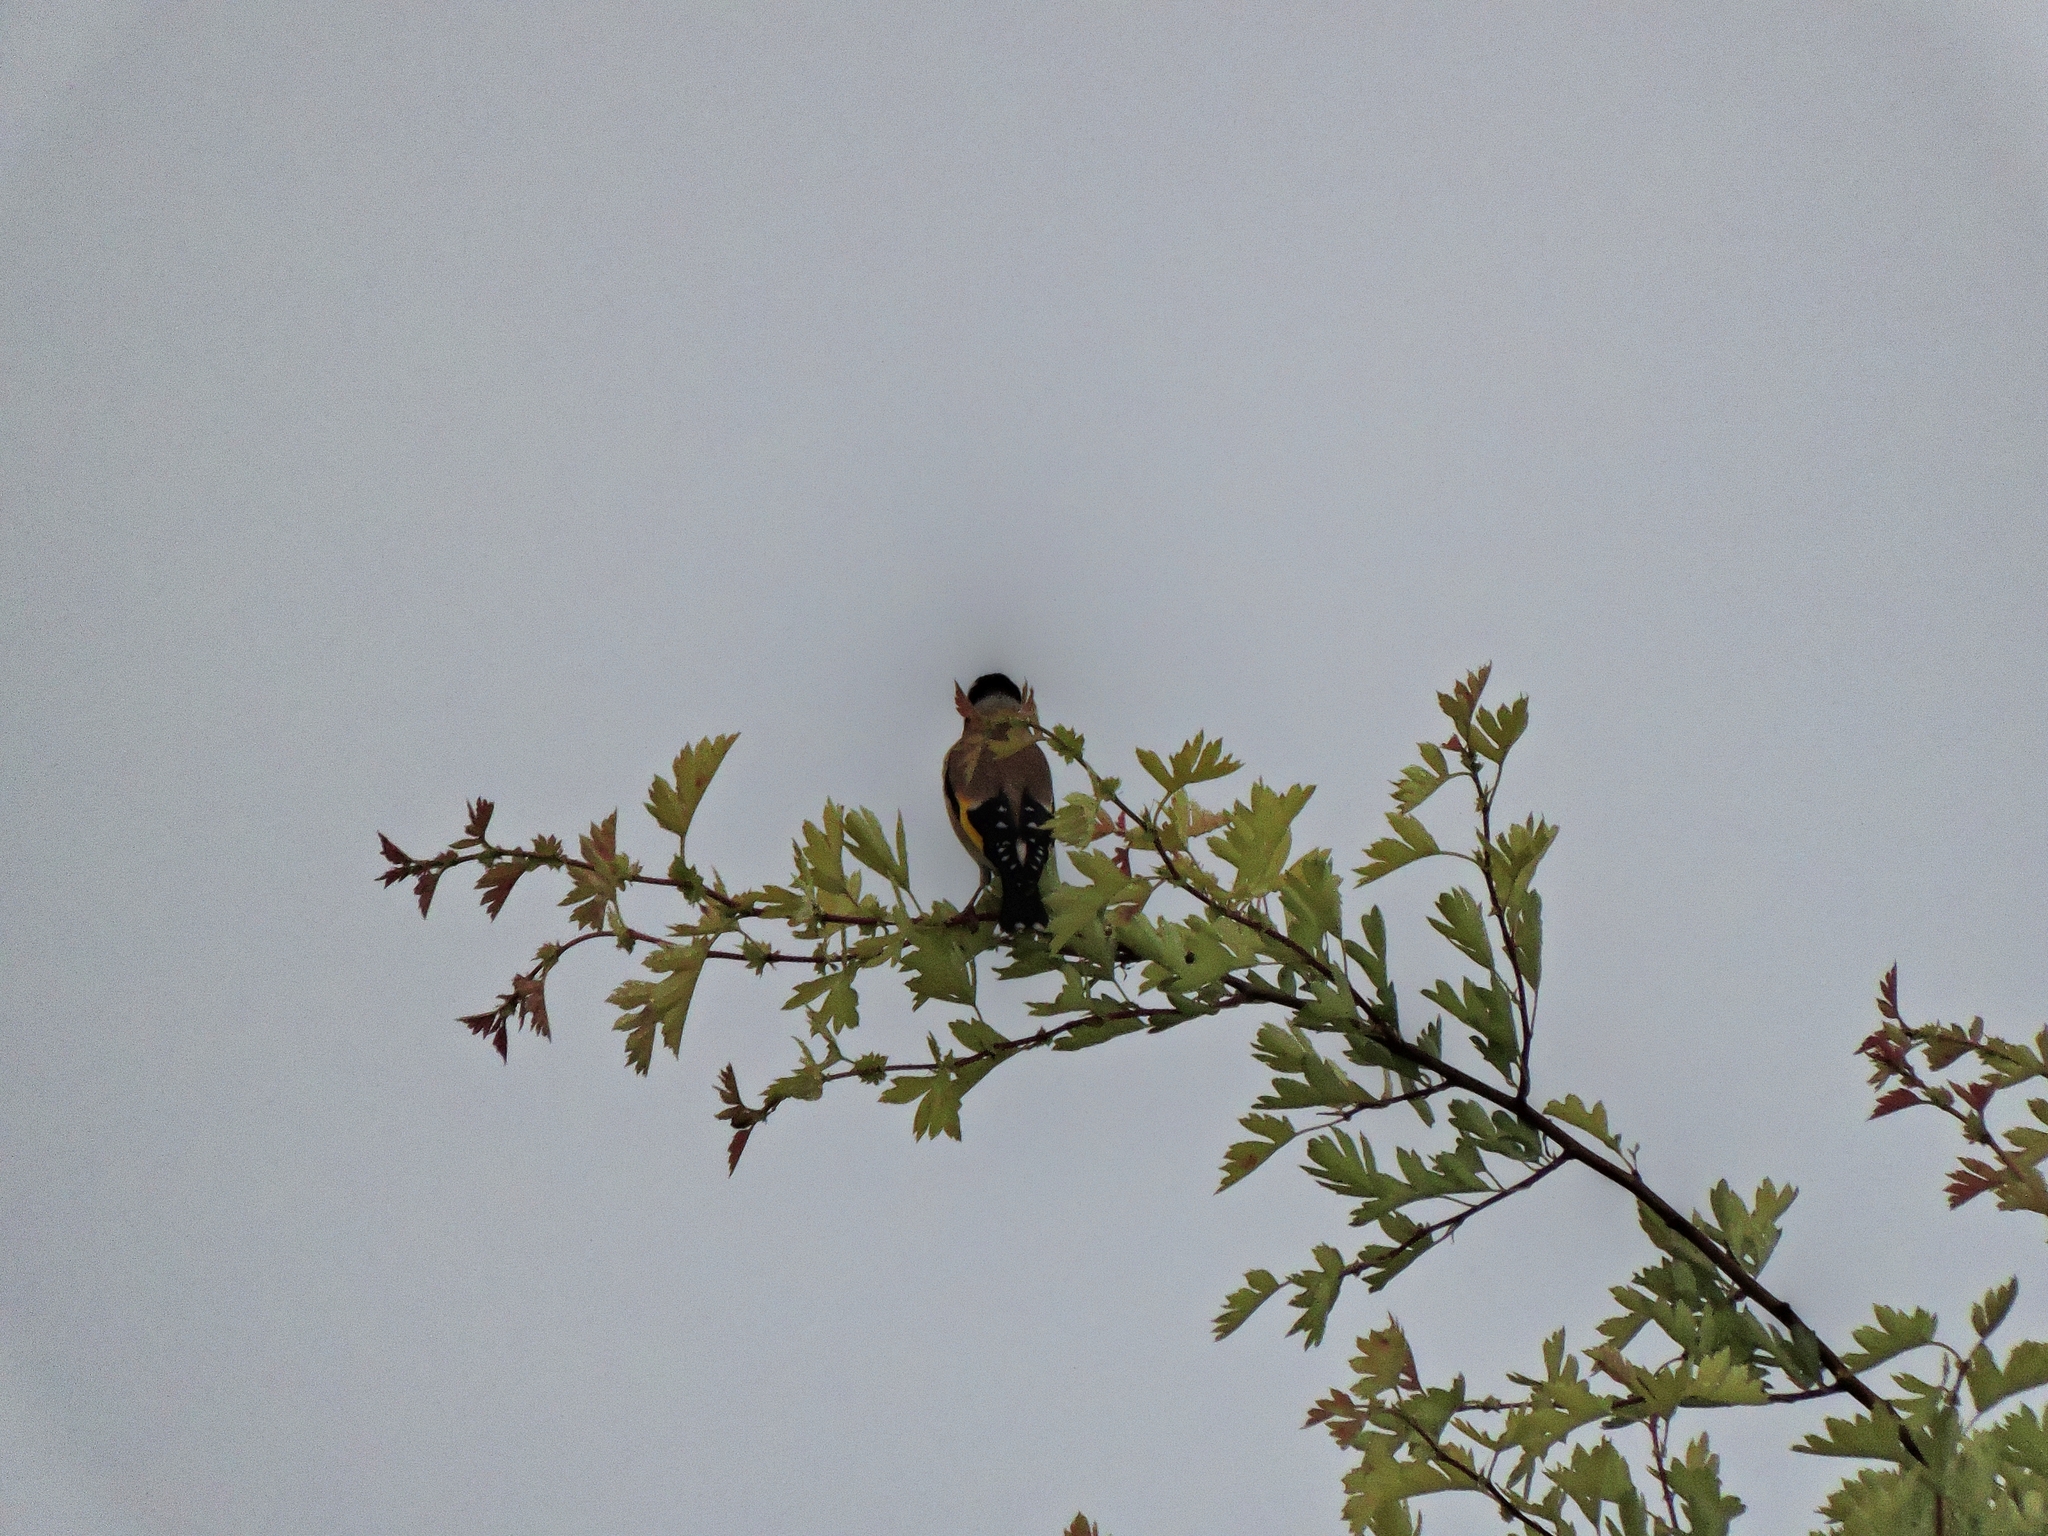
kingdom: Animalia
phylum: Chordata
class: Aves
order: Passeriformes
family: Fringillidae
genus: Carduelis
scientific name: Carduelis carduelis
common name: European goldfinch
